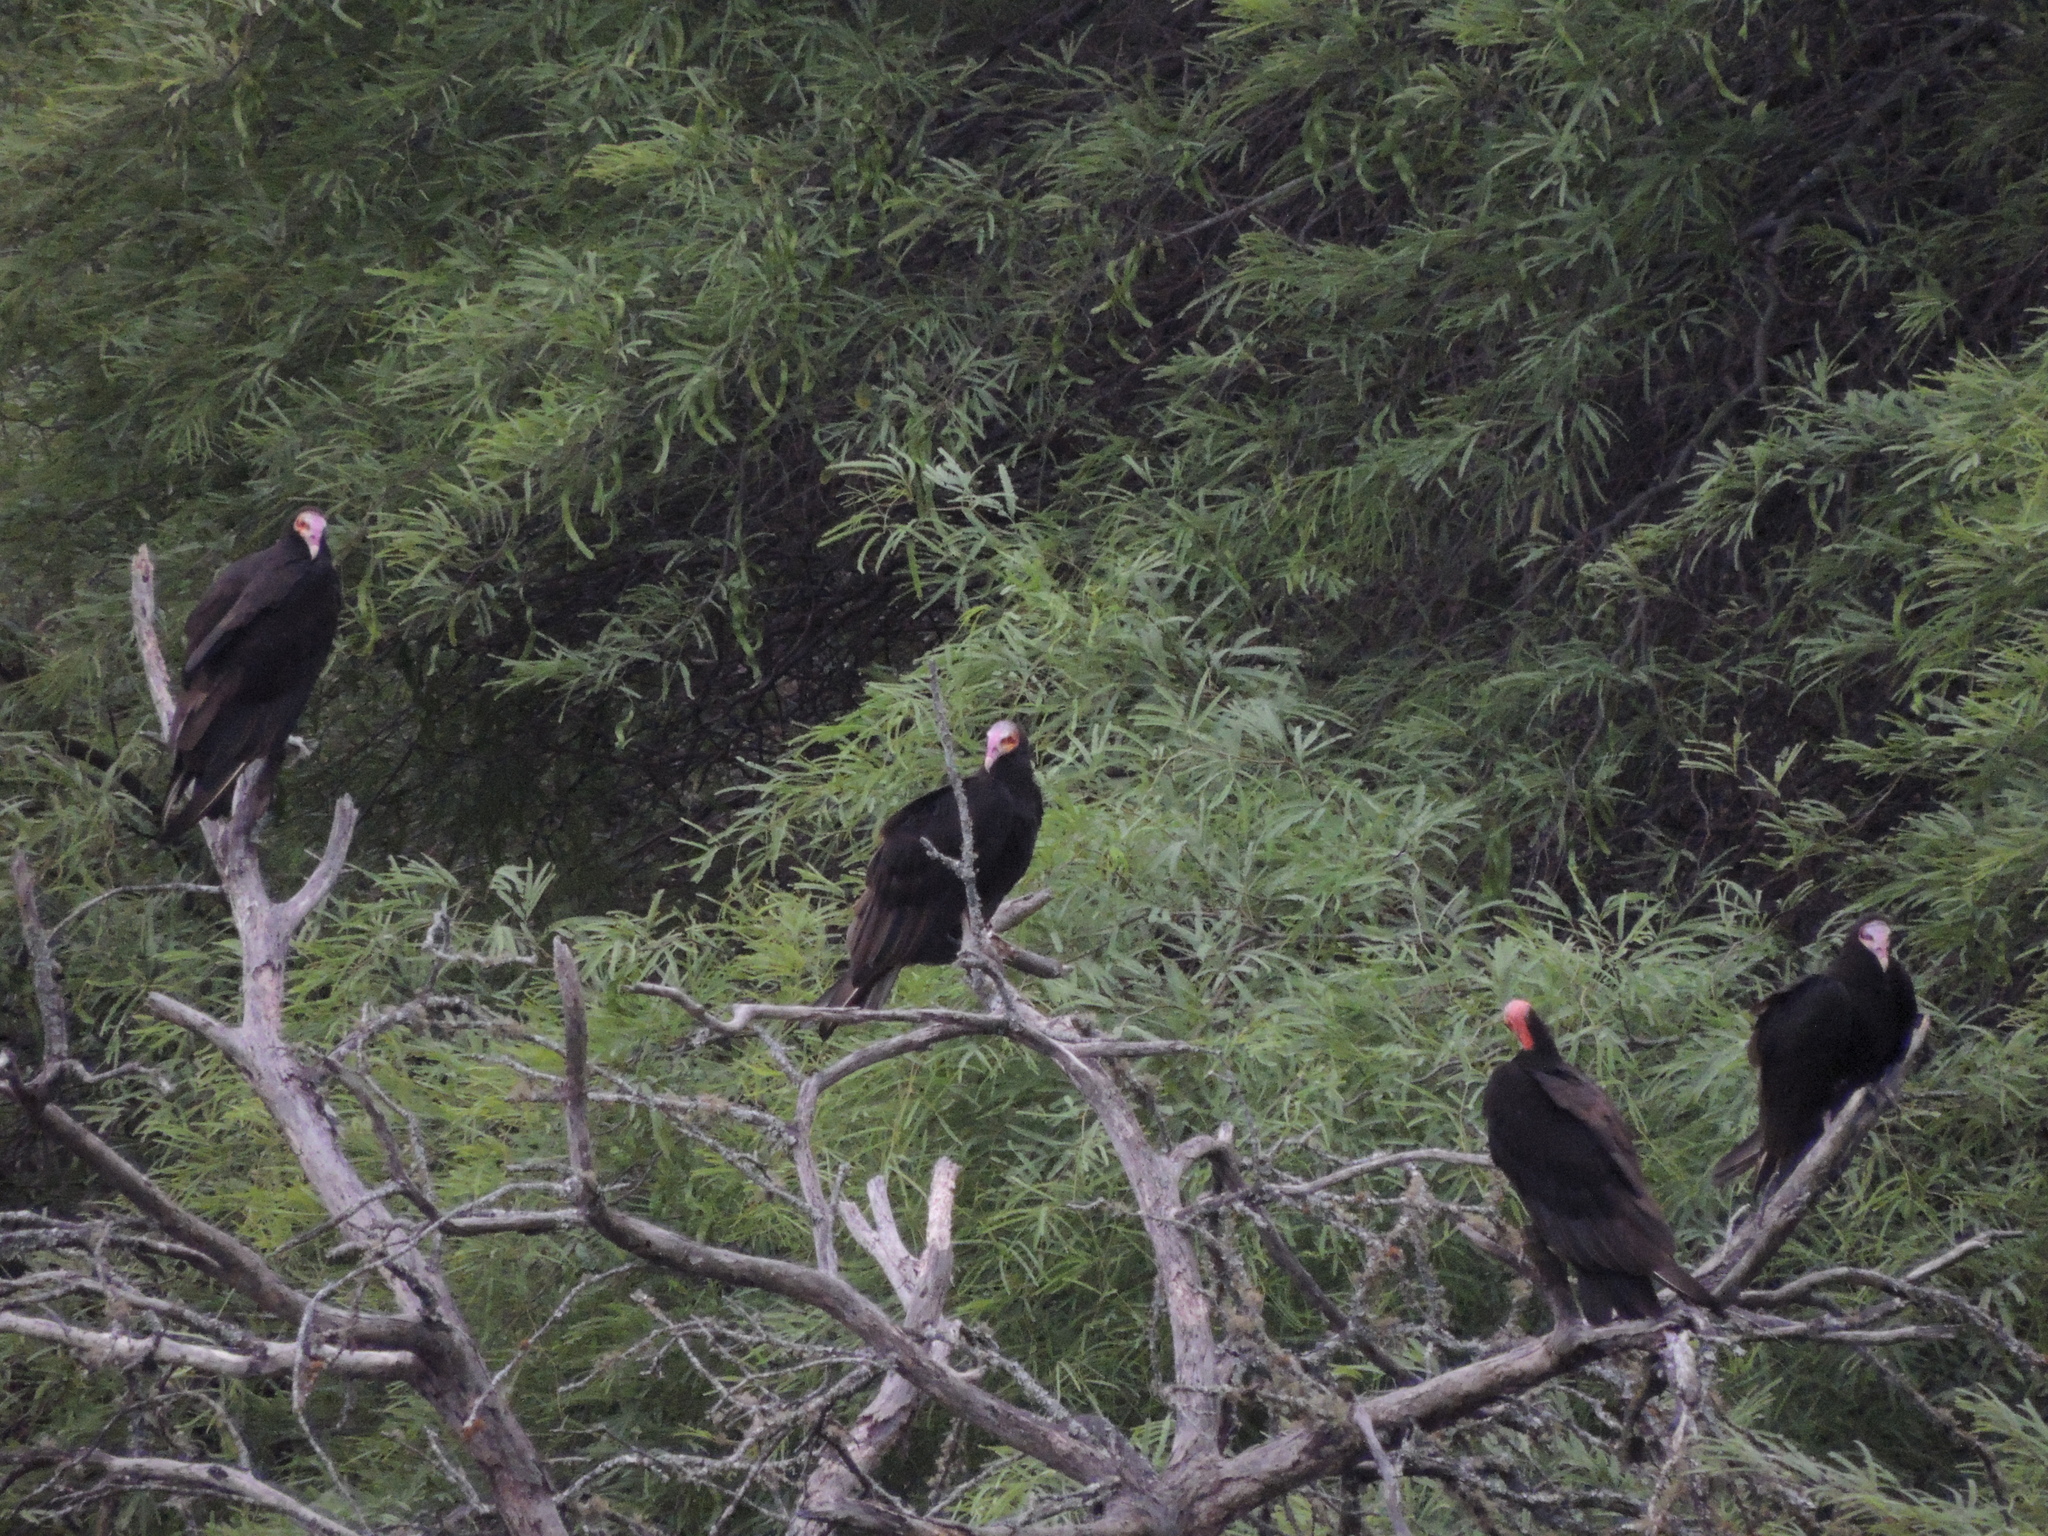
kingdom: Animalia
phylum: Chordata
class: Aves
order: Accipitriformes
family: Cathartidae
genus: Cathartes
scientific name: Cathartes burrovianus
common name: Lesser yellow-headed vulture
